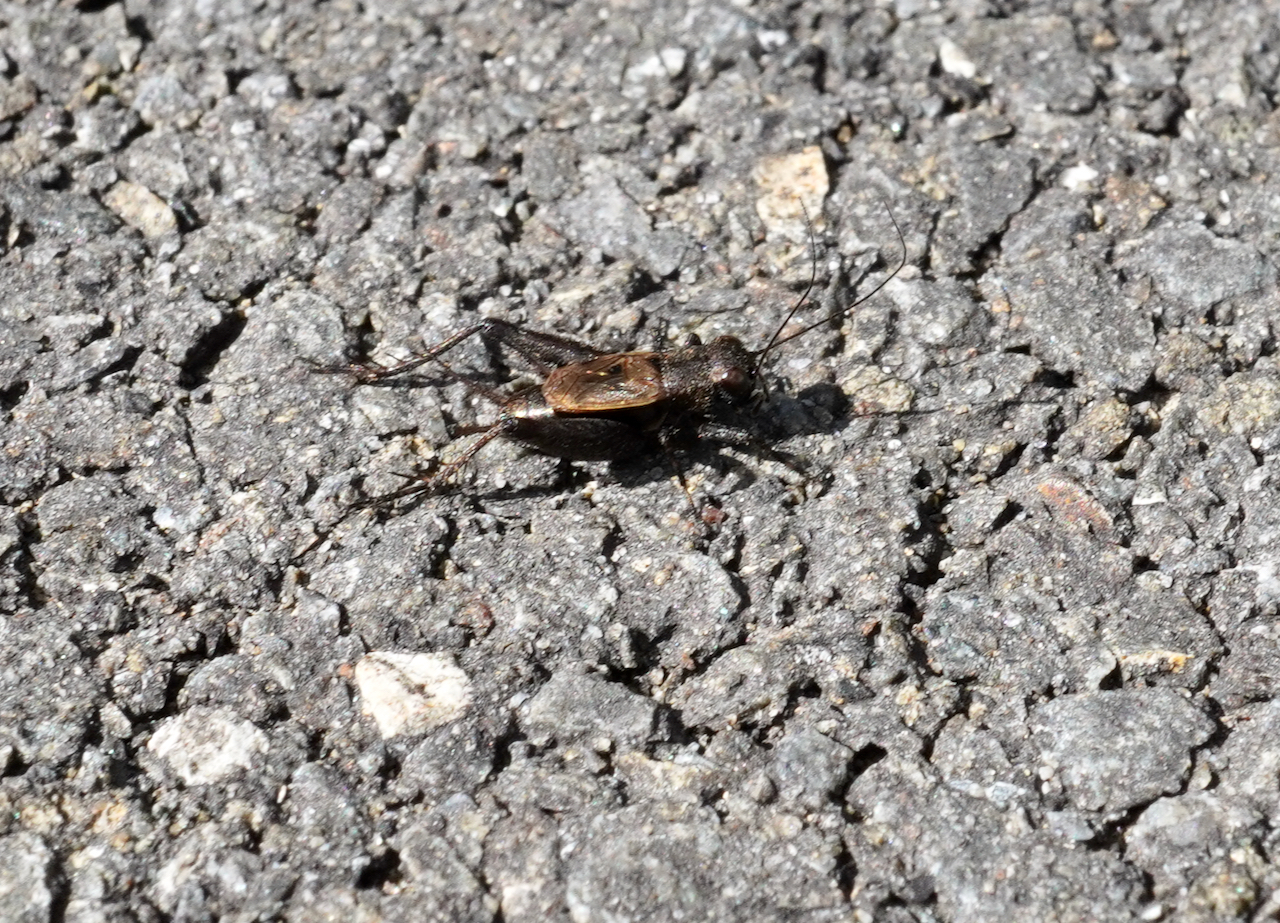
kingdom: Animalia
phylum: Arthropoda
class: Insecta
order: Orthoptera
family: Trigonidiidae
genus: Bobilla
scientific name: Bobilla bigelowi
